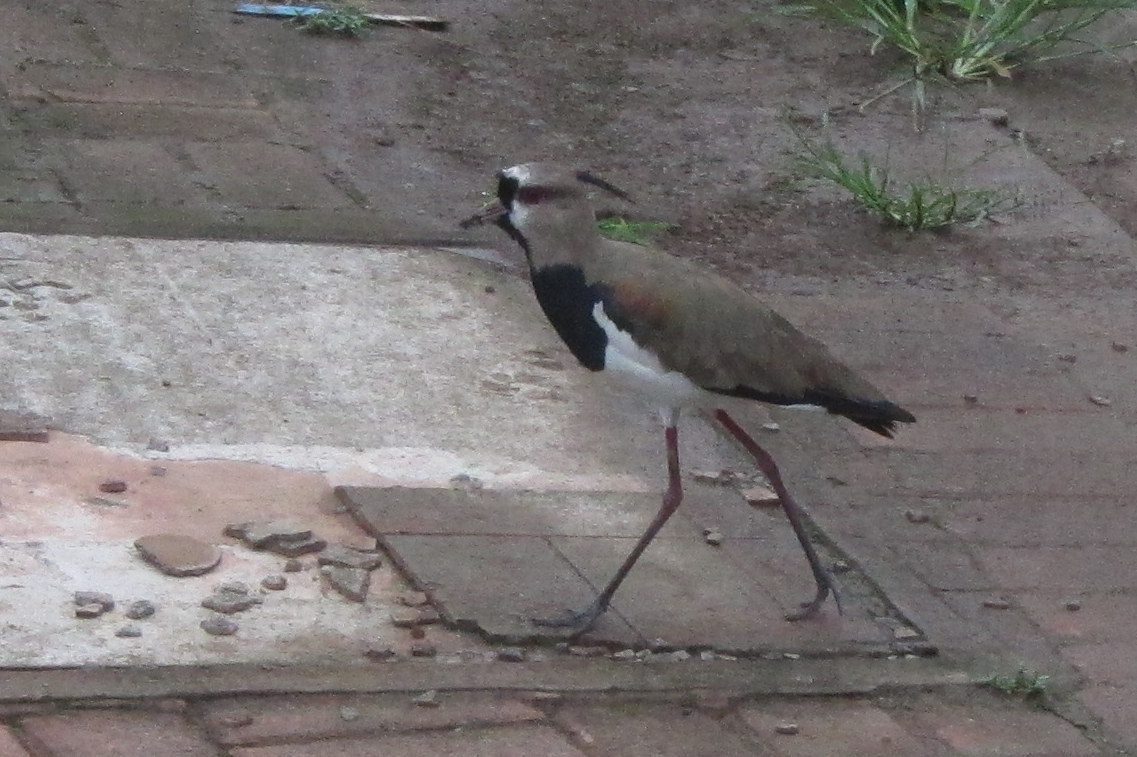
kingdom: Animalia
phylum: Chordata
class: Aves
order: Charadriiformes
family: Charadriidae
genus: Vanellus
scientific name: Vanellus chilensis
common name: Southern lapwing
